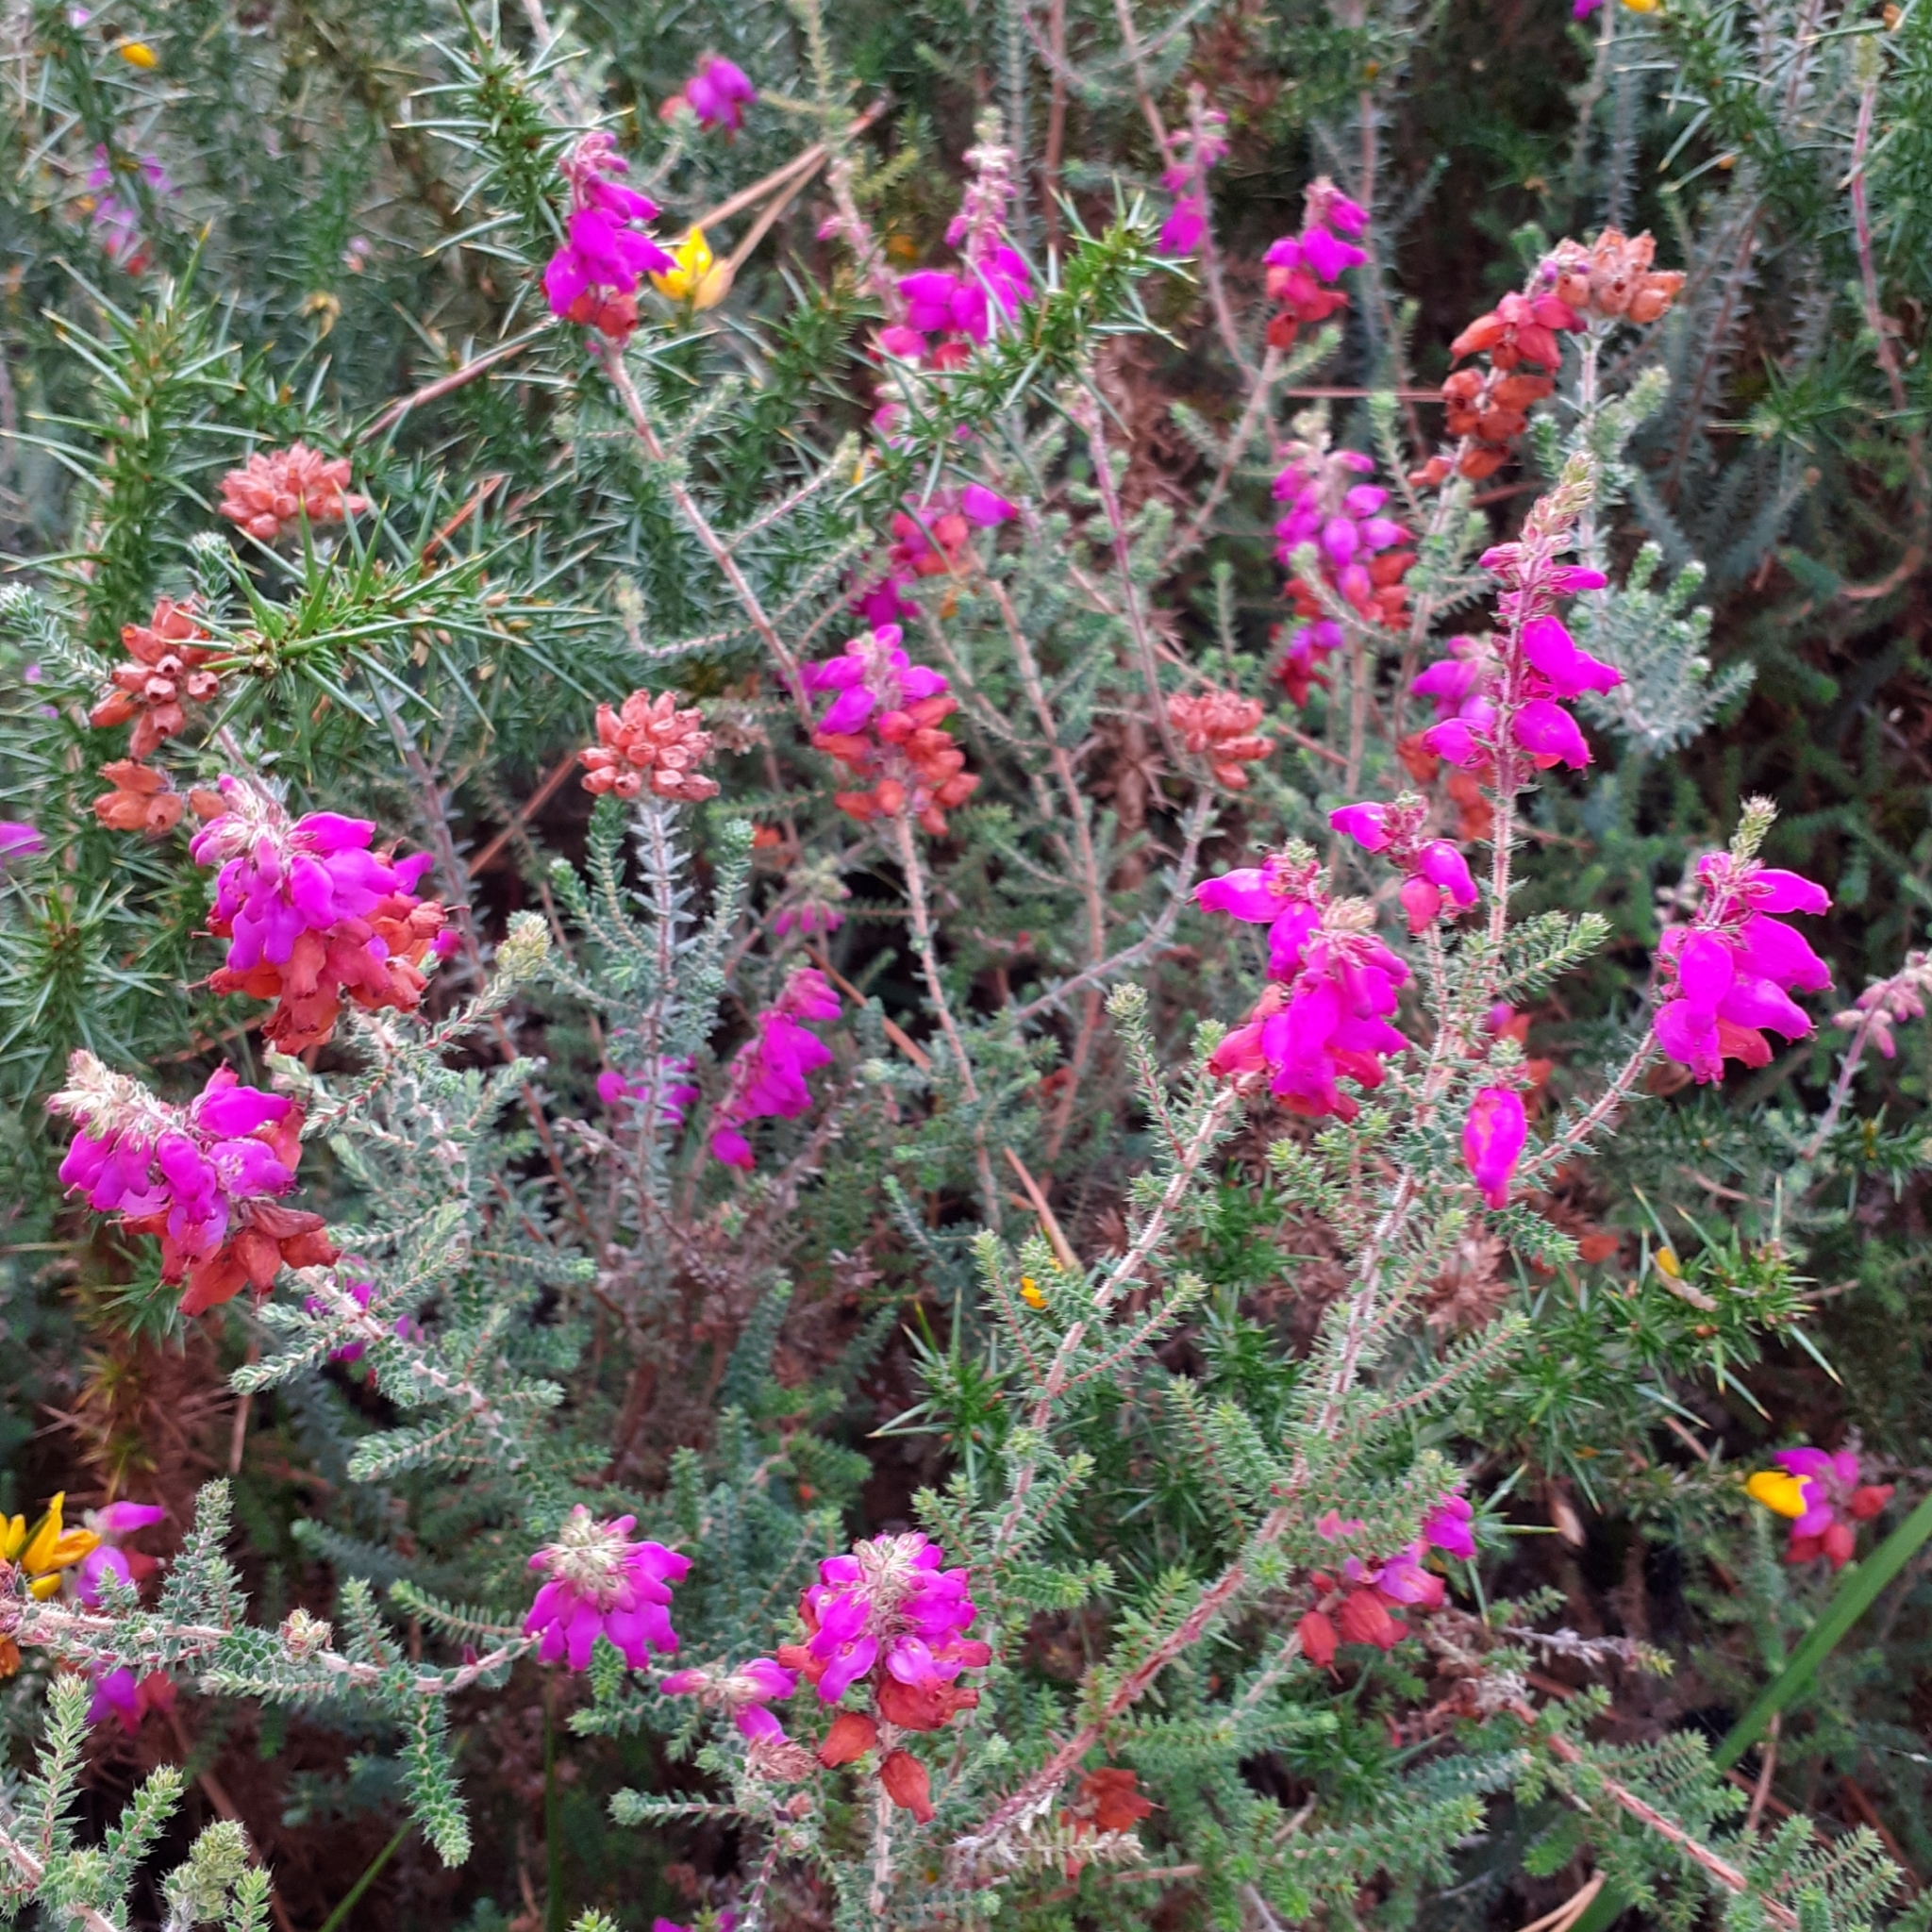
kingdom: Plantae
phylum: Tracheophyta
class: Magnoliopsida
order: Ericales
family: Ericaceae
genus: Erica
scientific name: Erica ciliaris
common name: Dorset heath
